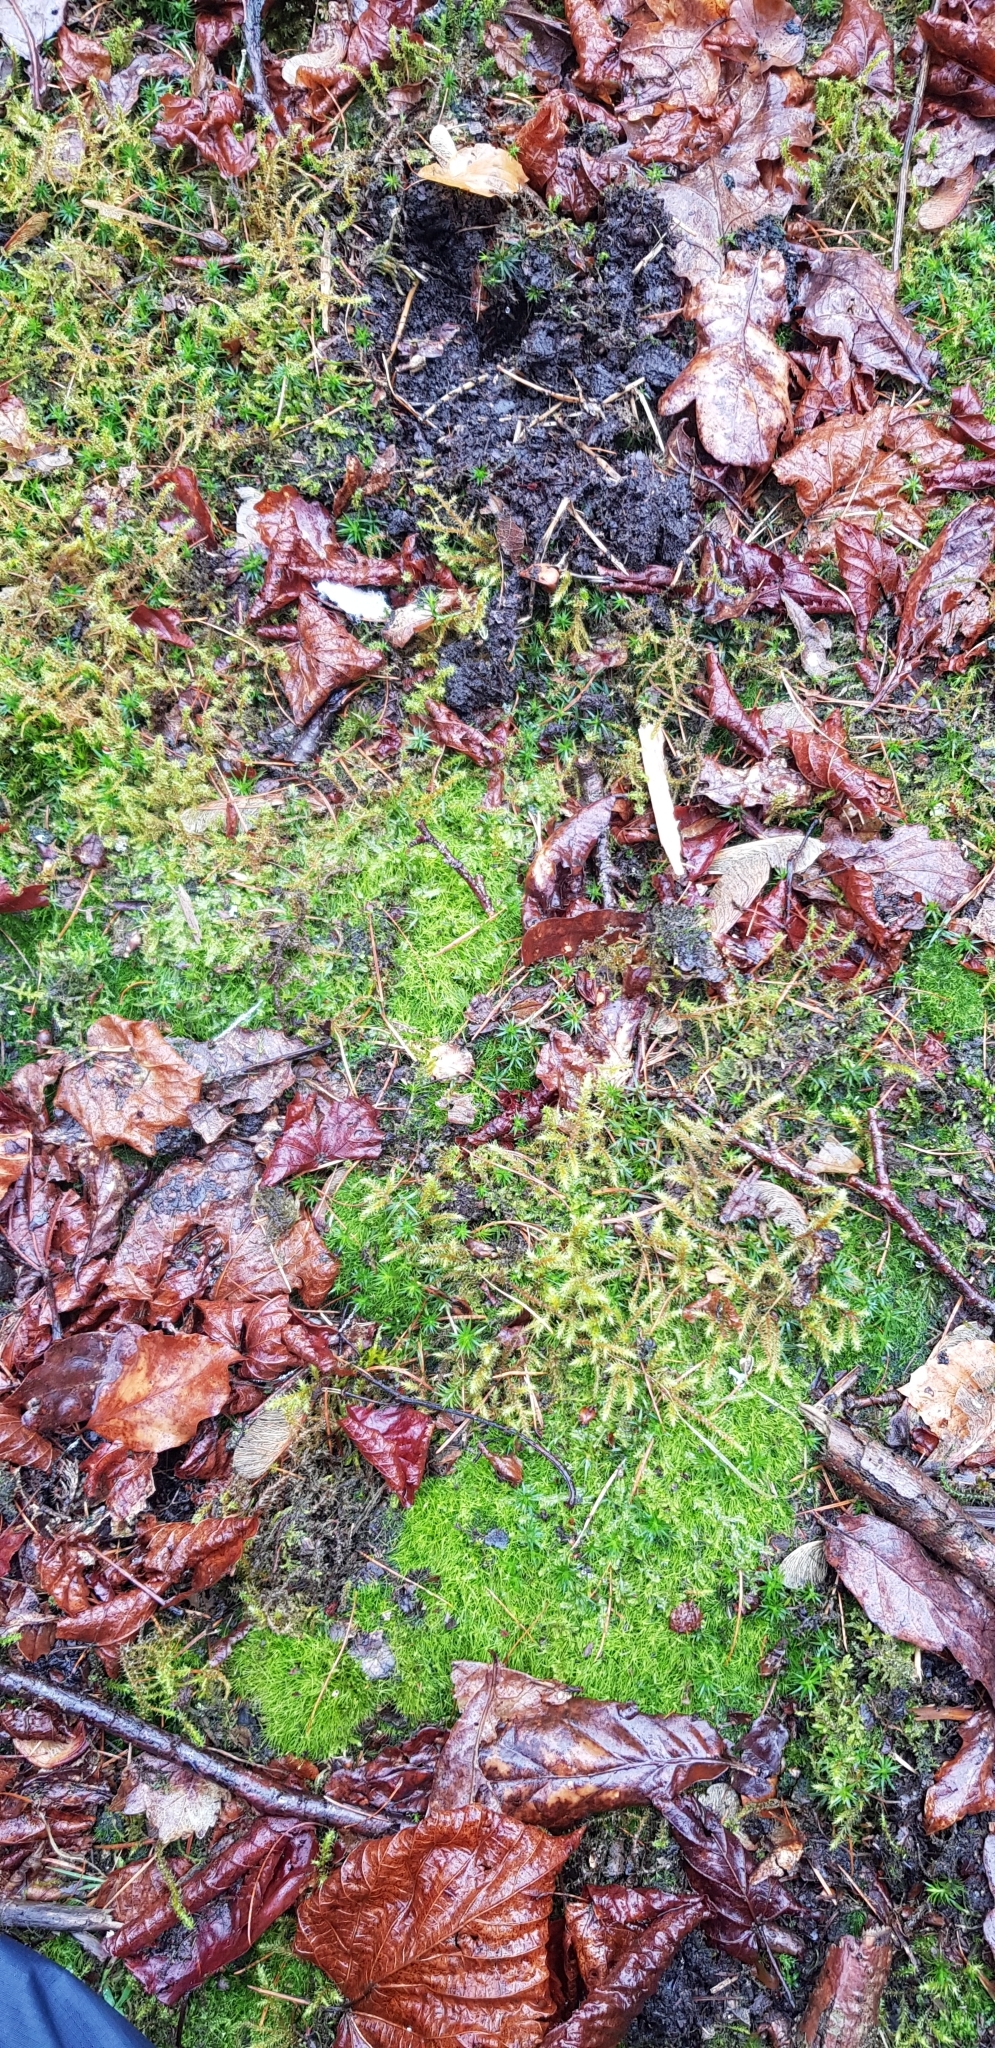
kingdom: Plantae
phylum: Bryophyta
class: Bryopsida
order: Hypnales
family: Hylocomiaceae
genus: Rhytidiadelphus
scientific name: Rhytidiadelphus loreus
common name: Lanky moss
